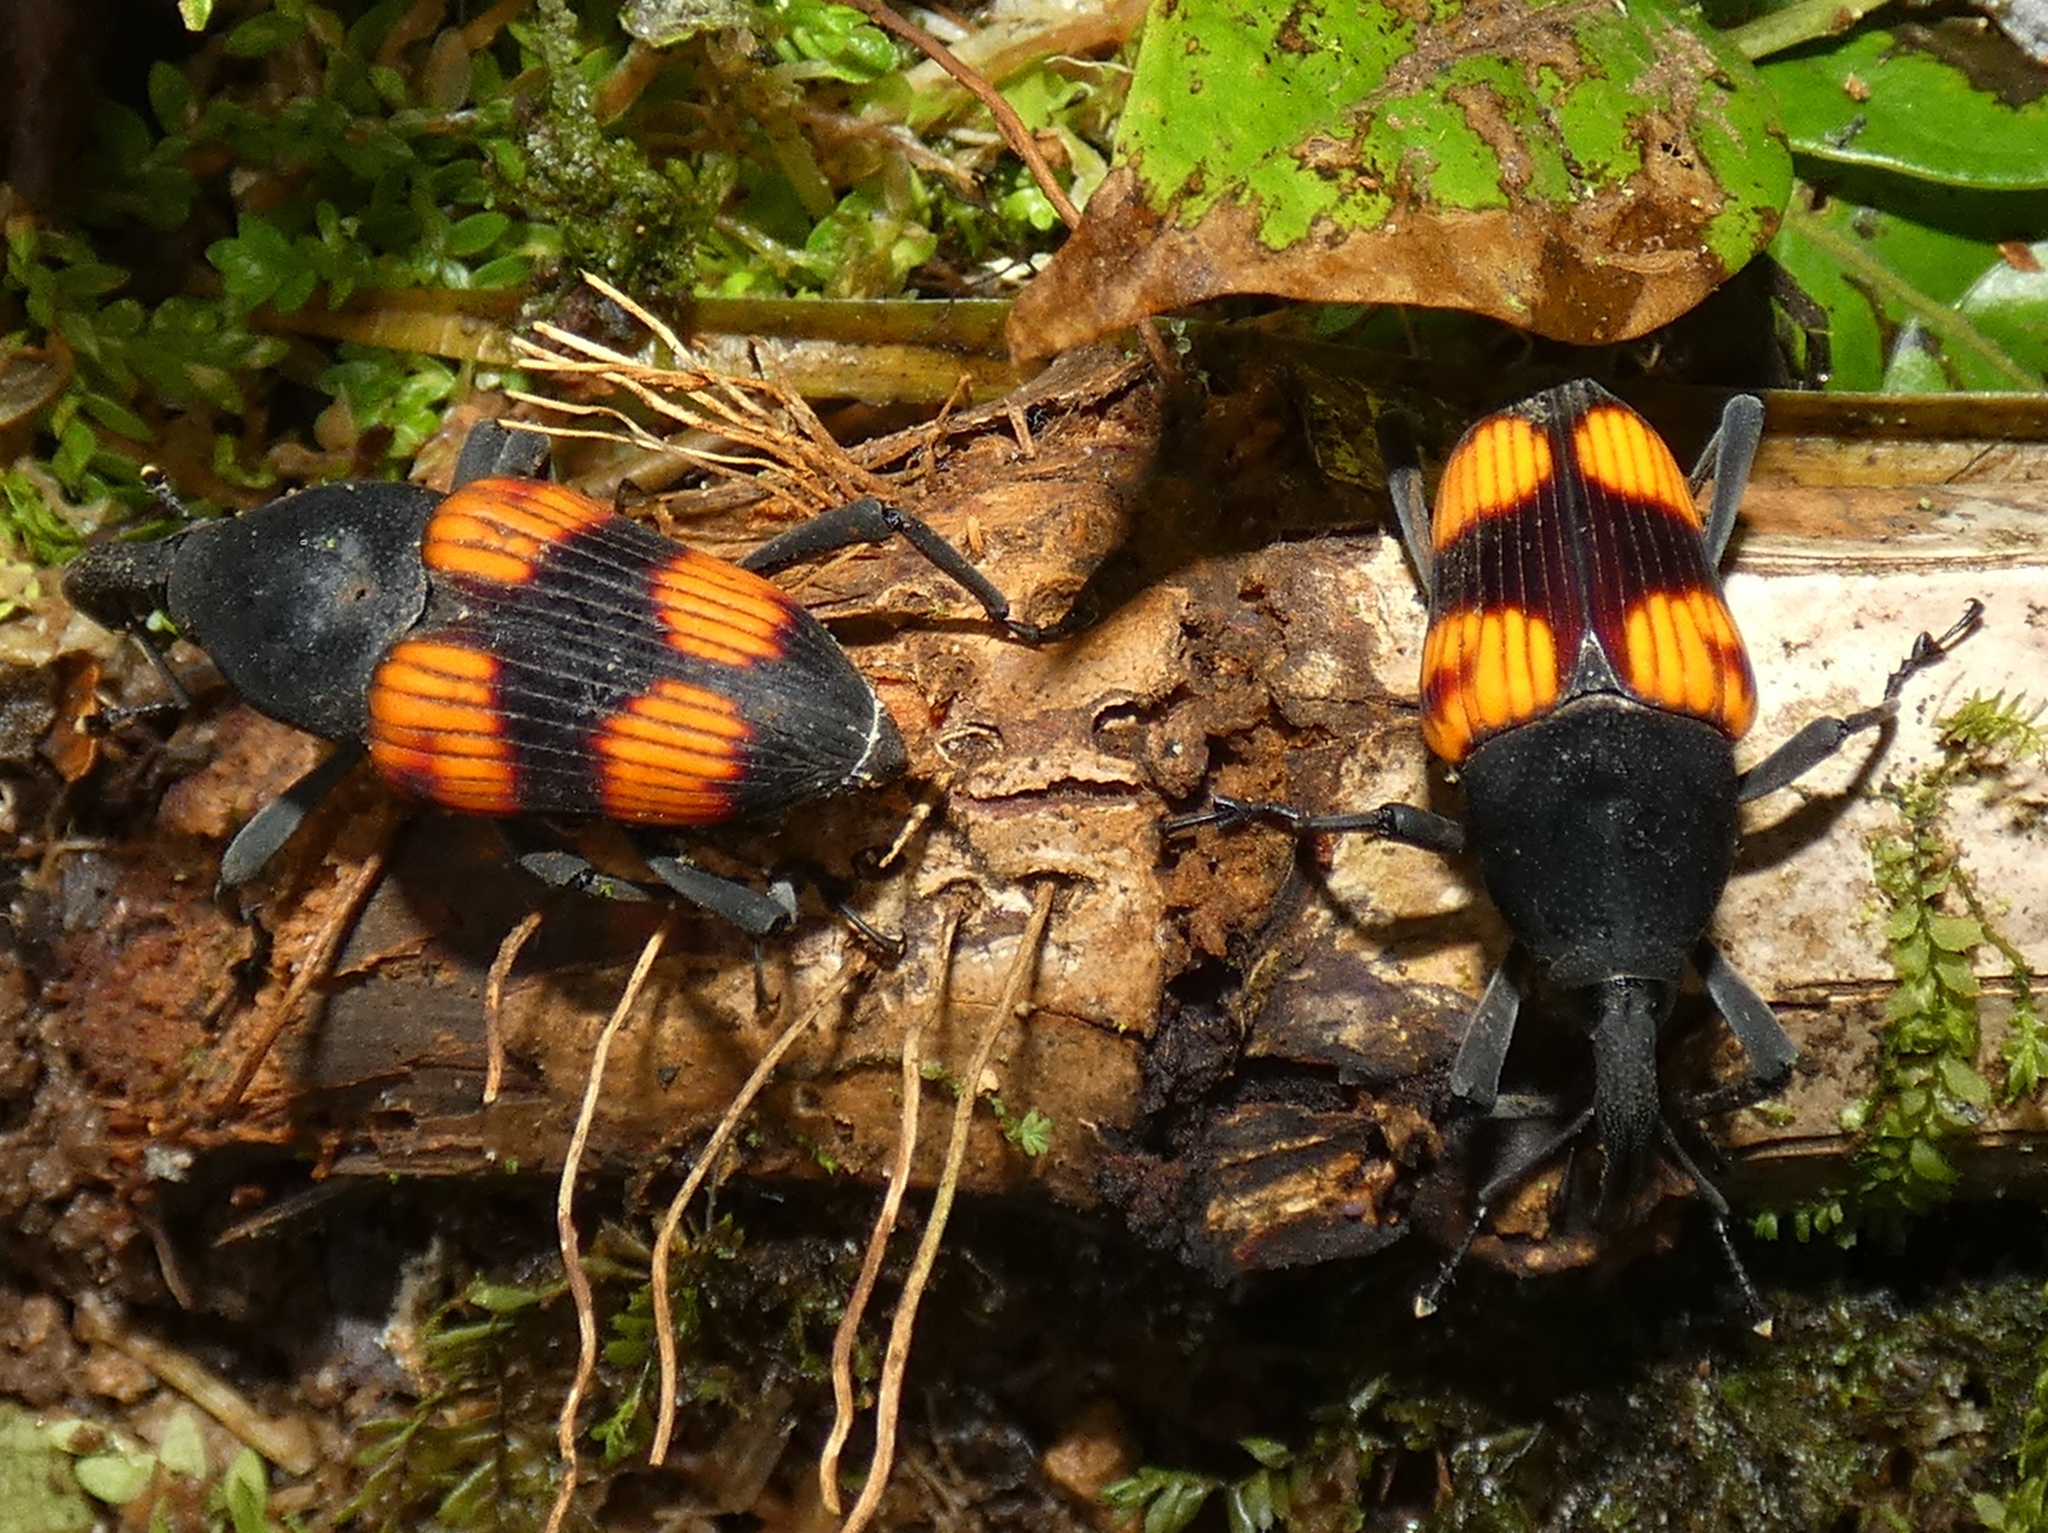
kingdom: Animalia
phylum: Arthropoda
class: Insecta
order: Coleoptera
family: Dryophthoridae
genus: Cactophagus
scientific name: Cactophagus rubrovariegatus
